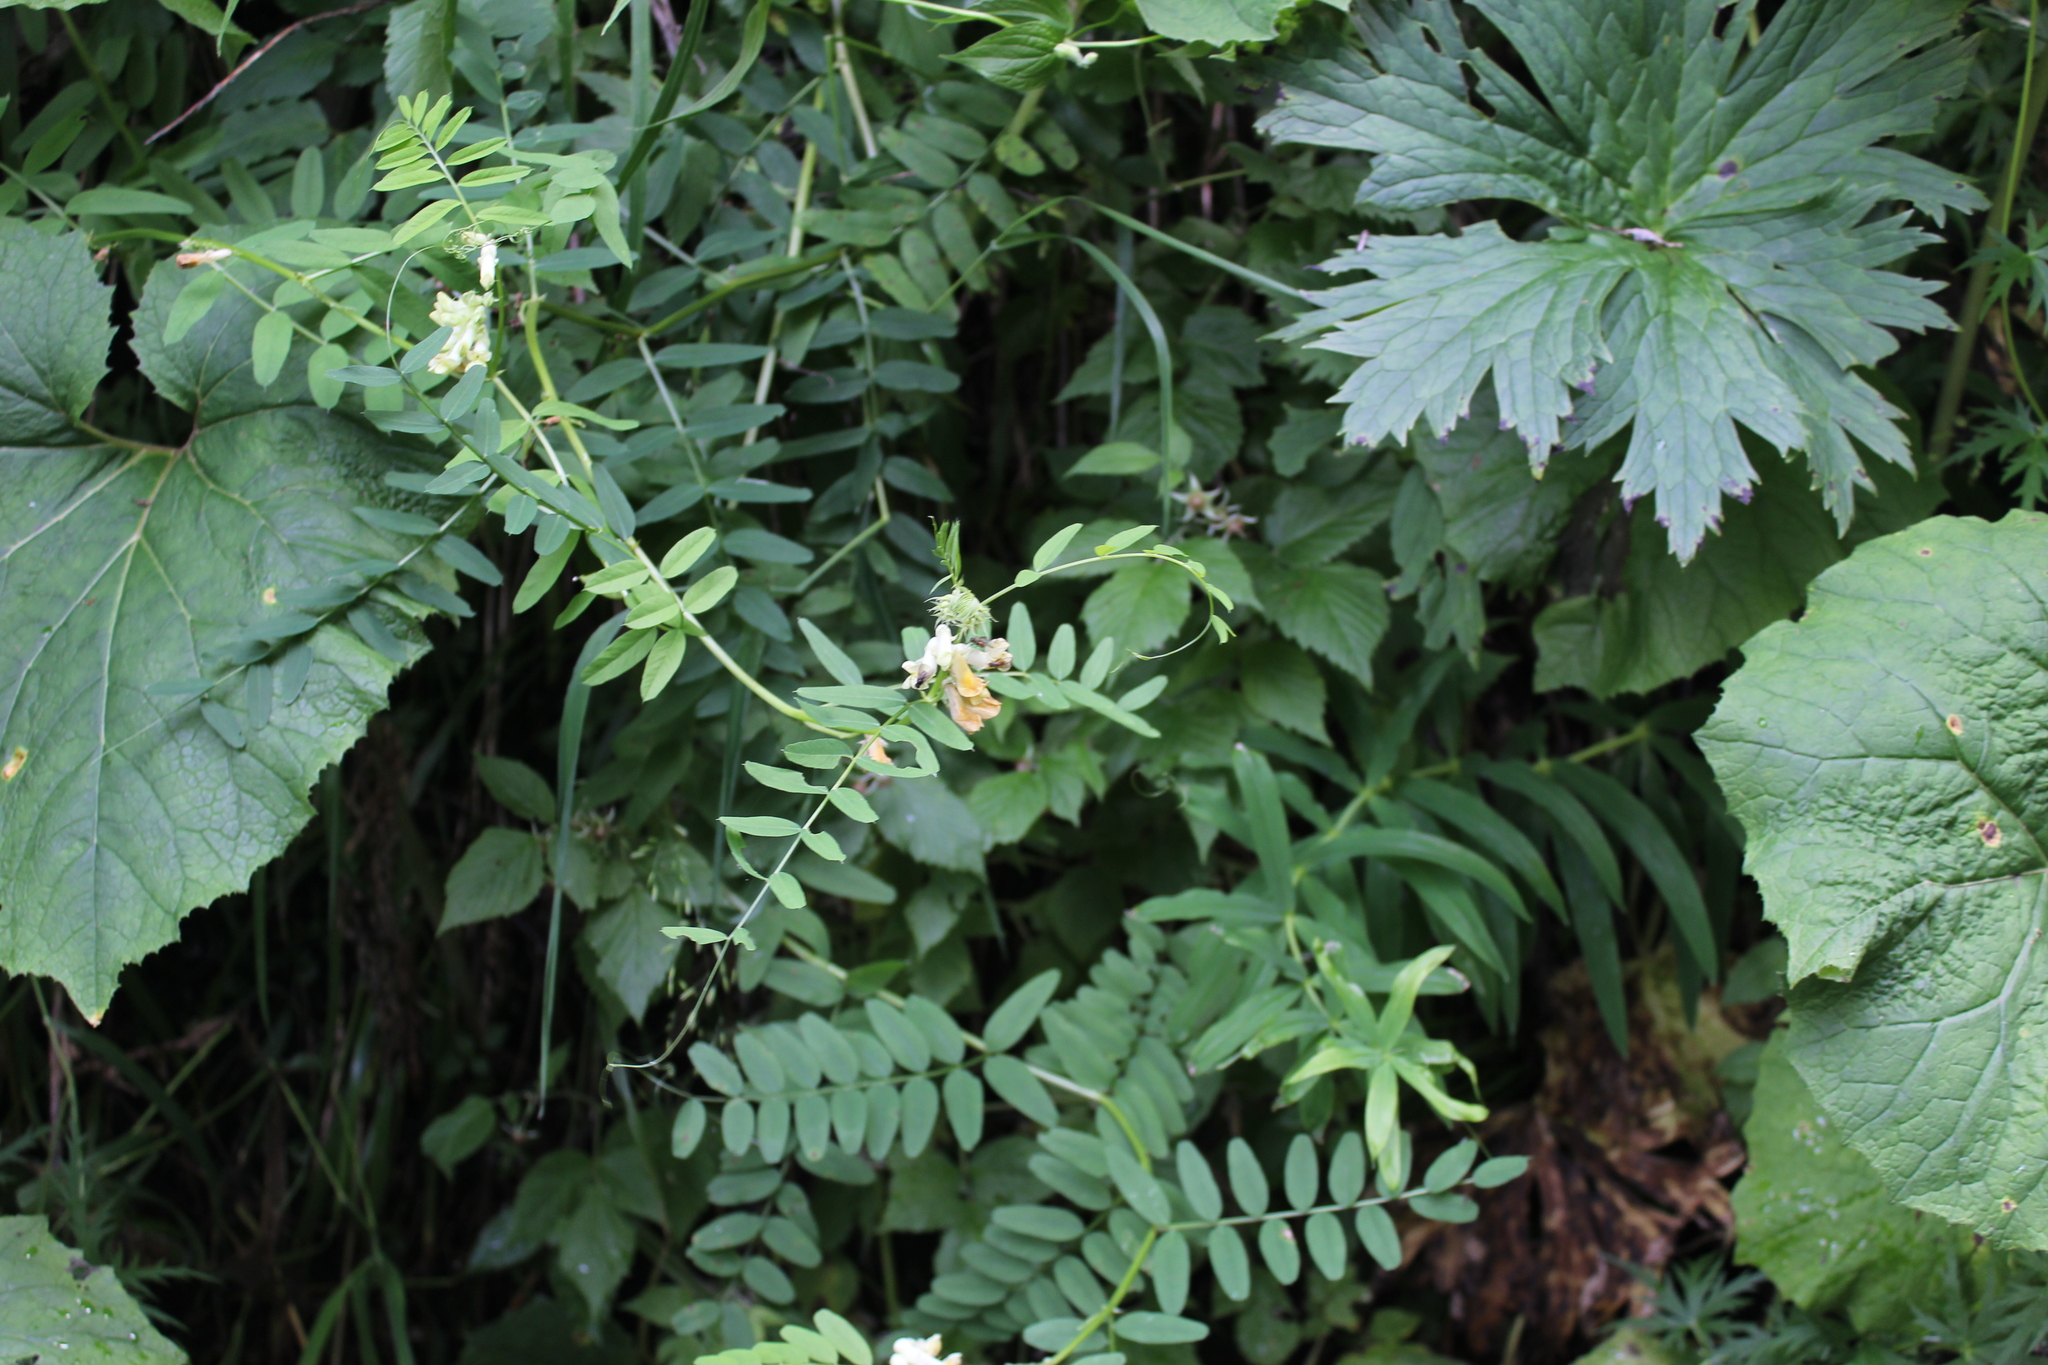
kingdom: Plantae
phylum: Tracheophyta
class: Magnoliopsida
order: Fabales
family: Fabaceae
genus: Vicia
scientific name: Vicia balansae
